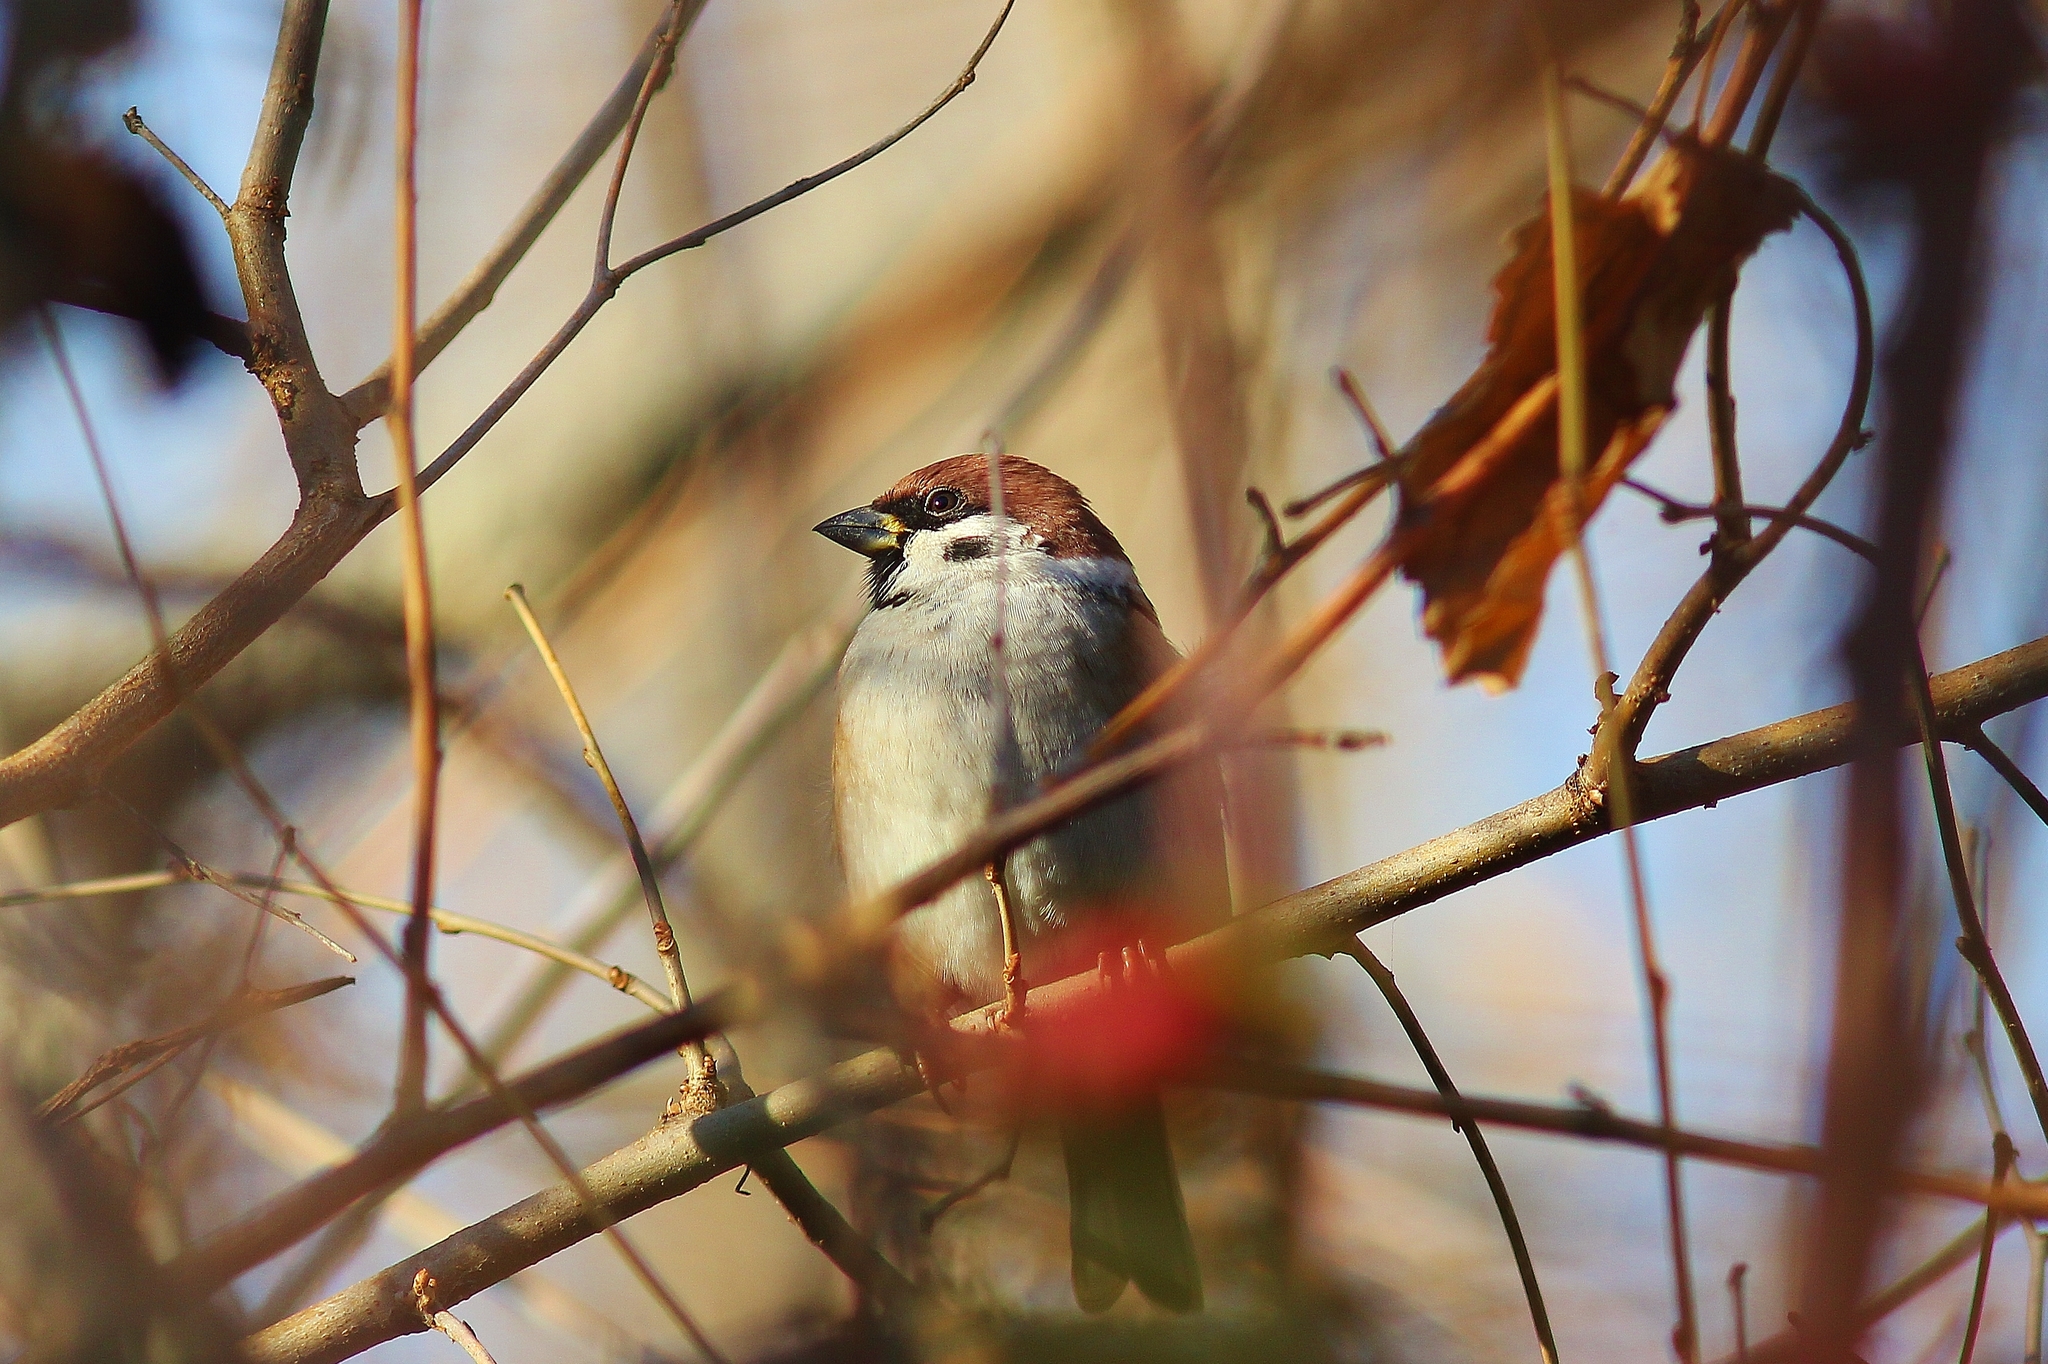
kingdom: Animalia
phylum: Chordata
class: Aves
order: Passeriformes
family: Passeridae
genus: Passer
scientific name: Passer montanus
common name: Eurasian tree sparrow
